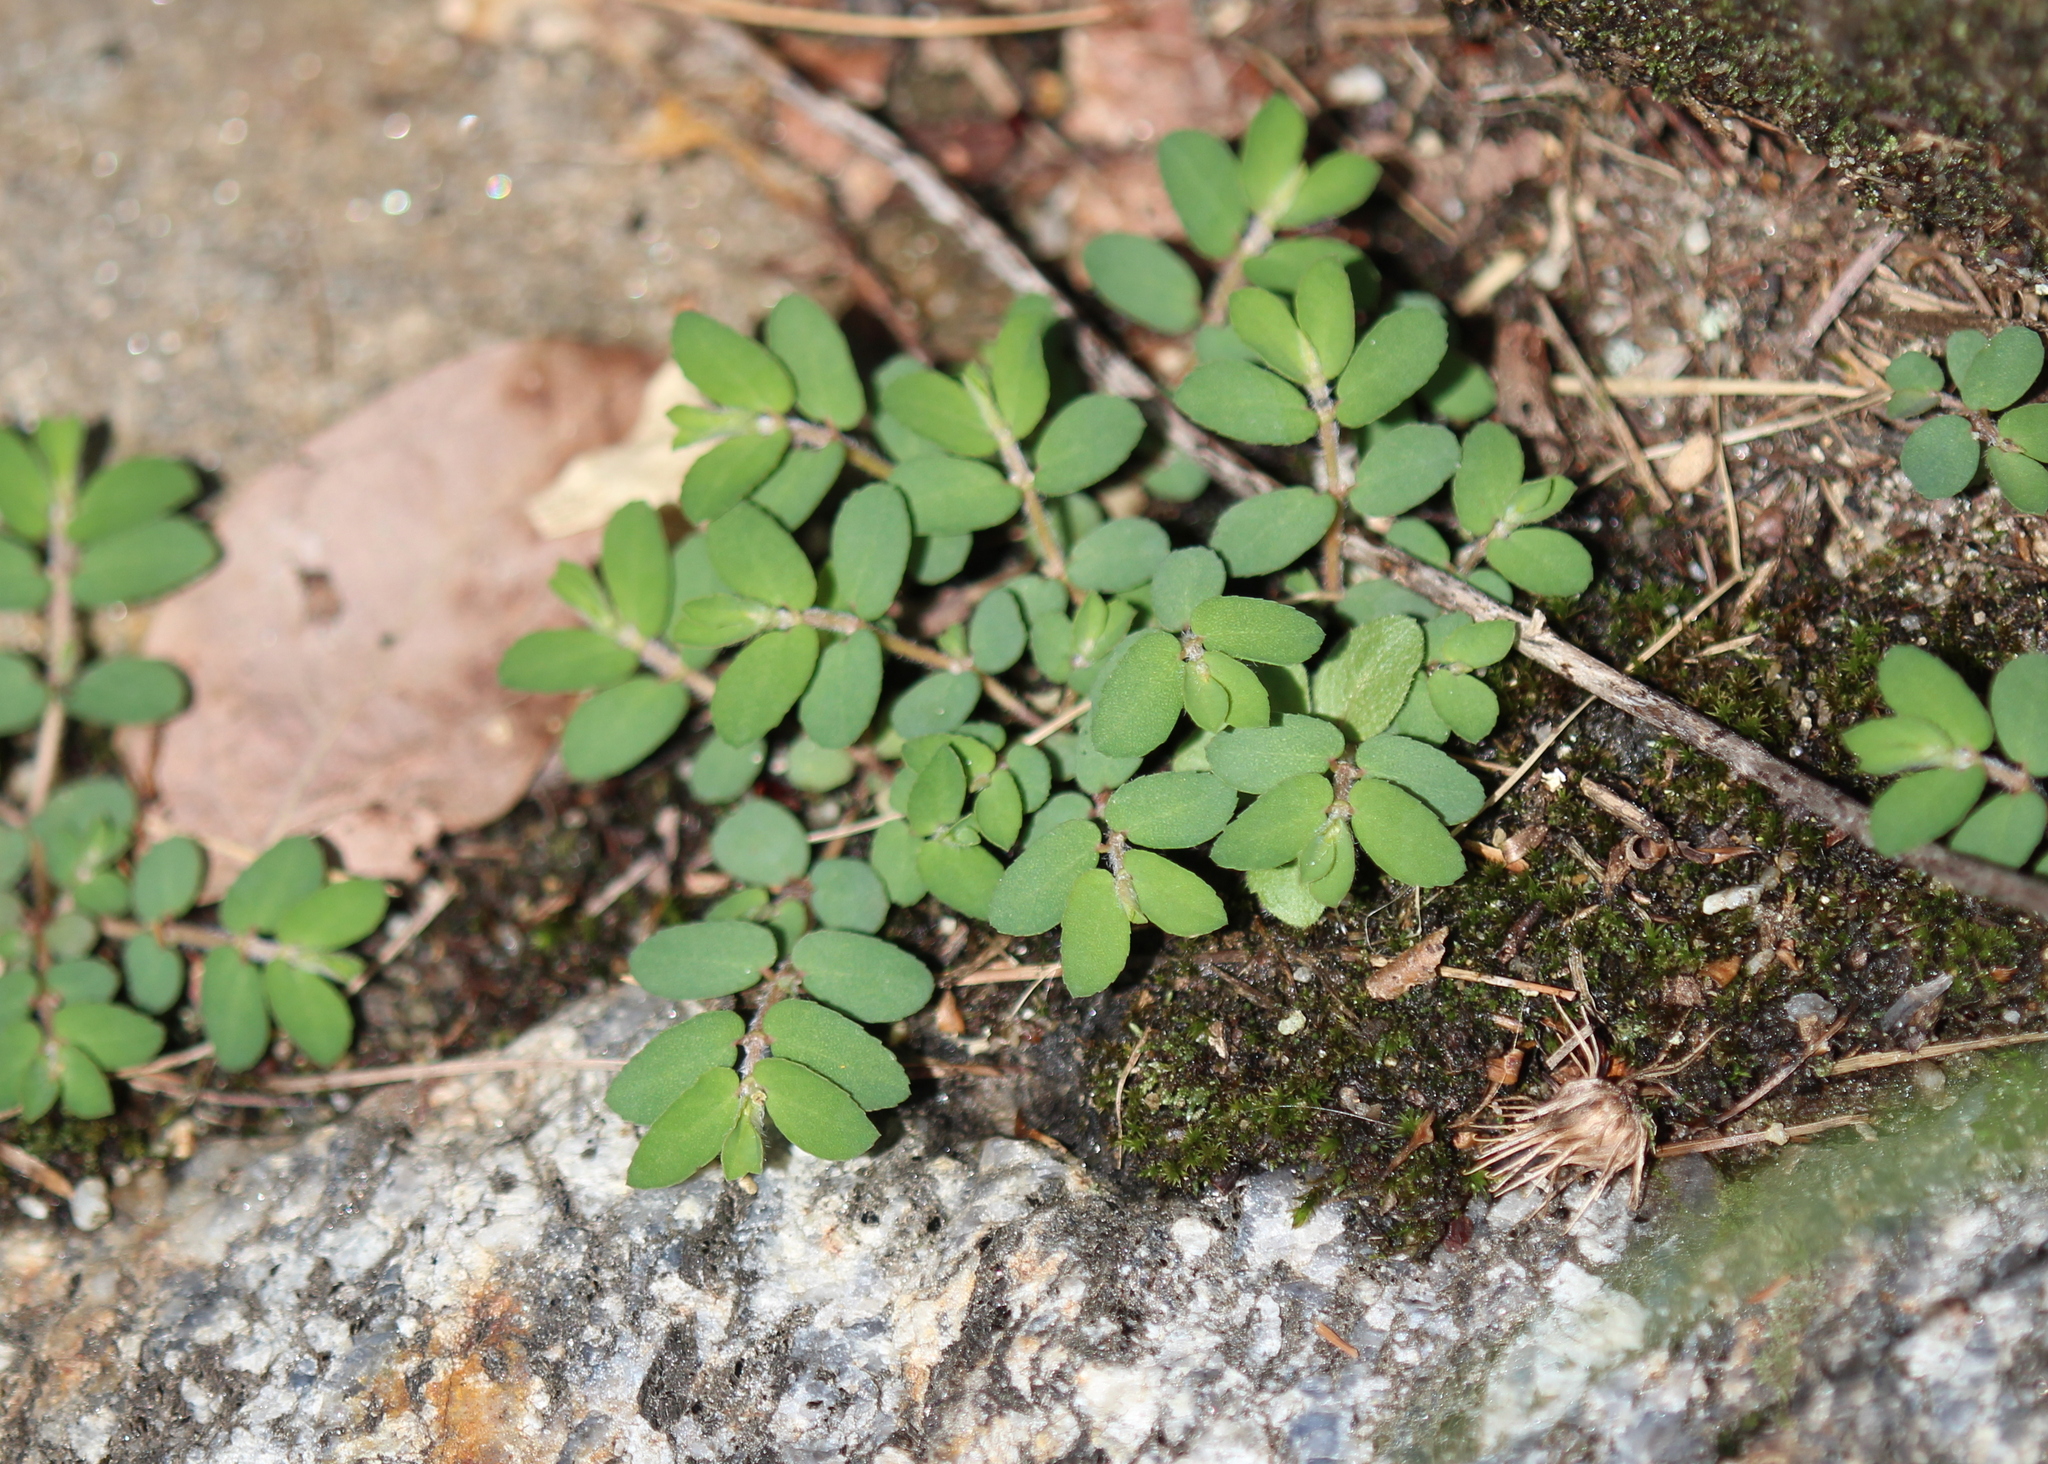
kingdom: Plantae
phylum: Tracheophyta
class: Magnoliopsida
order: Malpighiales
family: Euphorbiaceae
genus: Euphorbia
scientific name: Euphorbia maculata
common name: Spotted spurge
